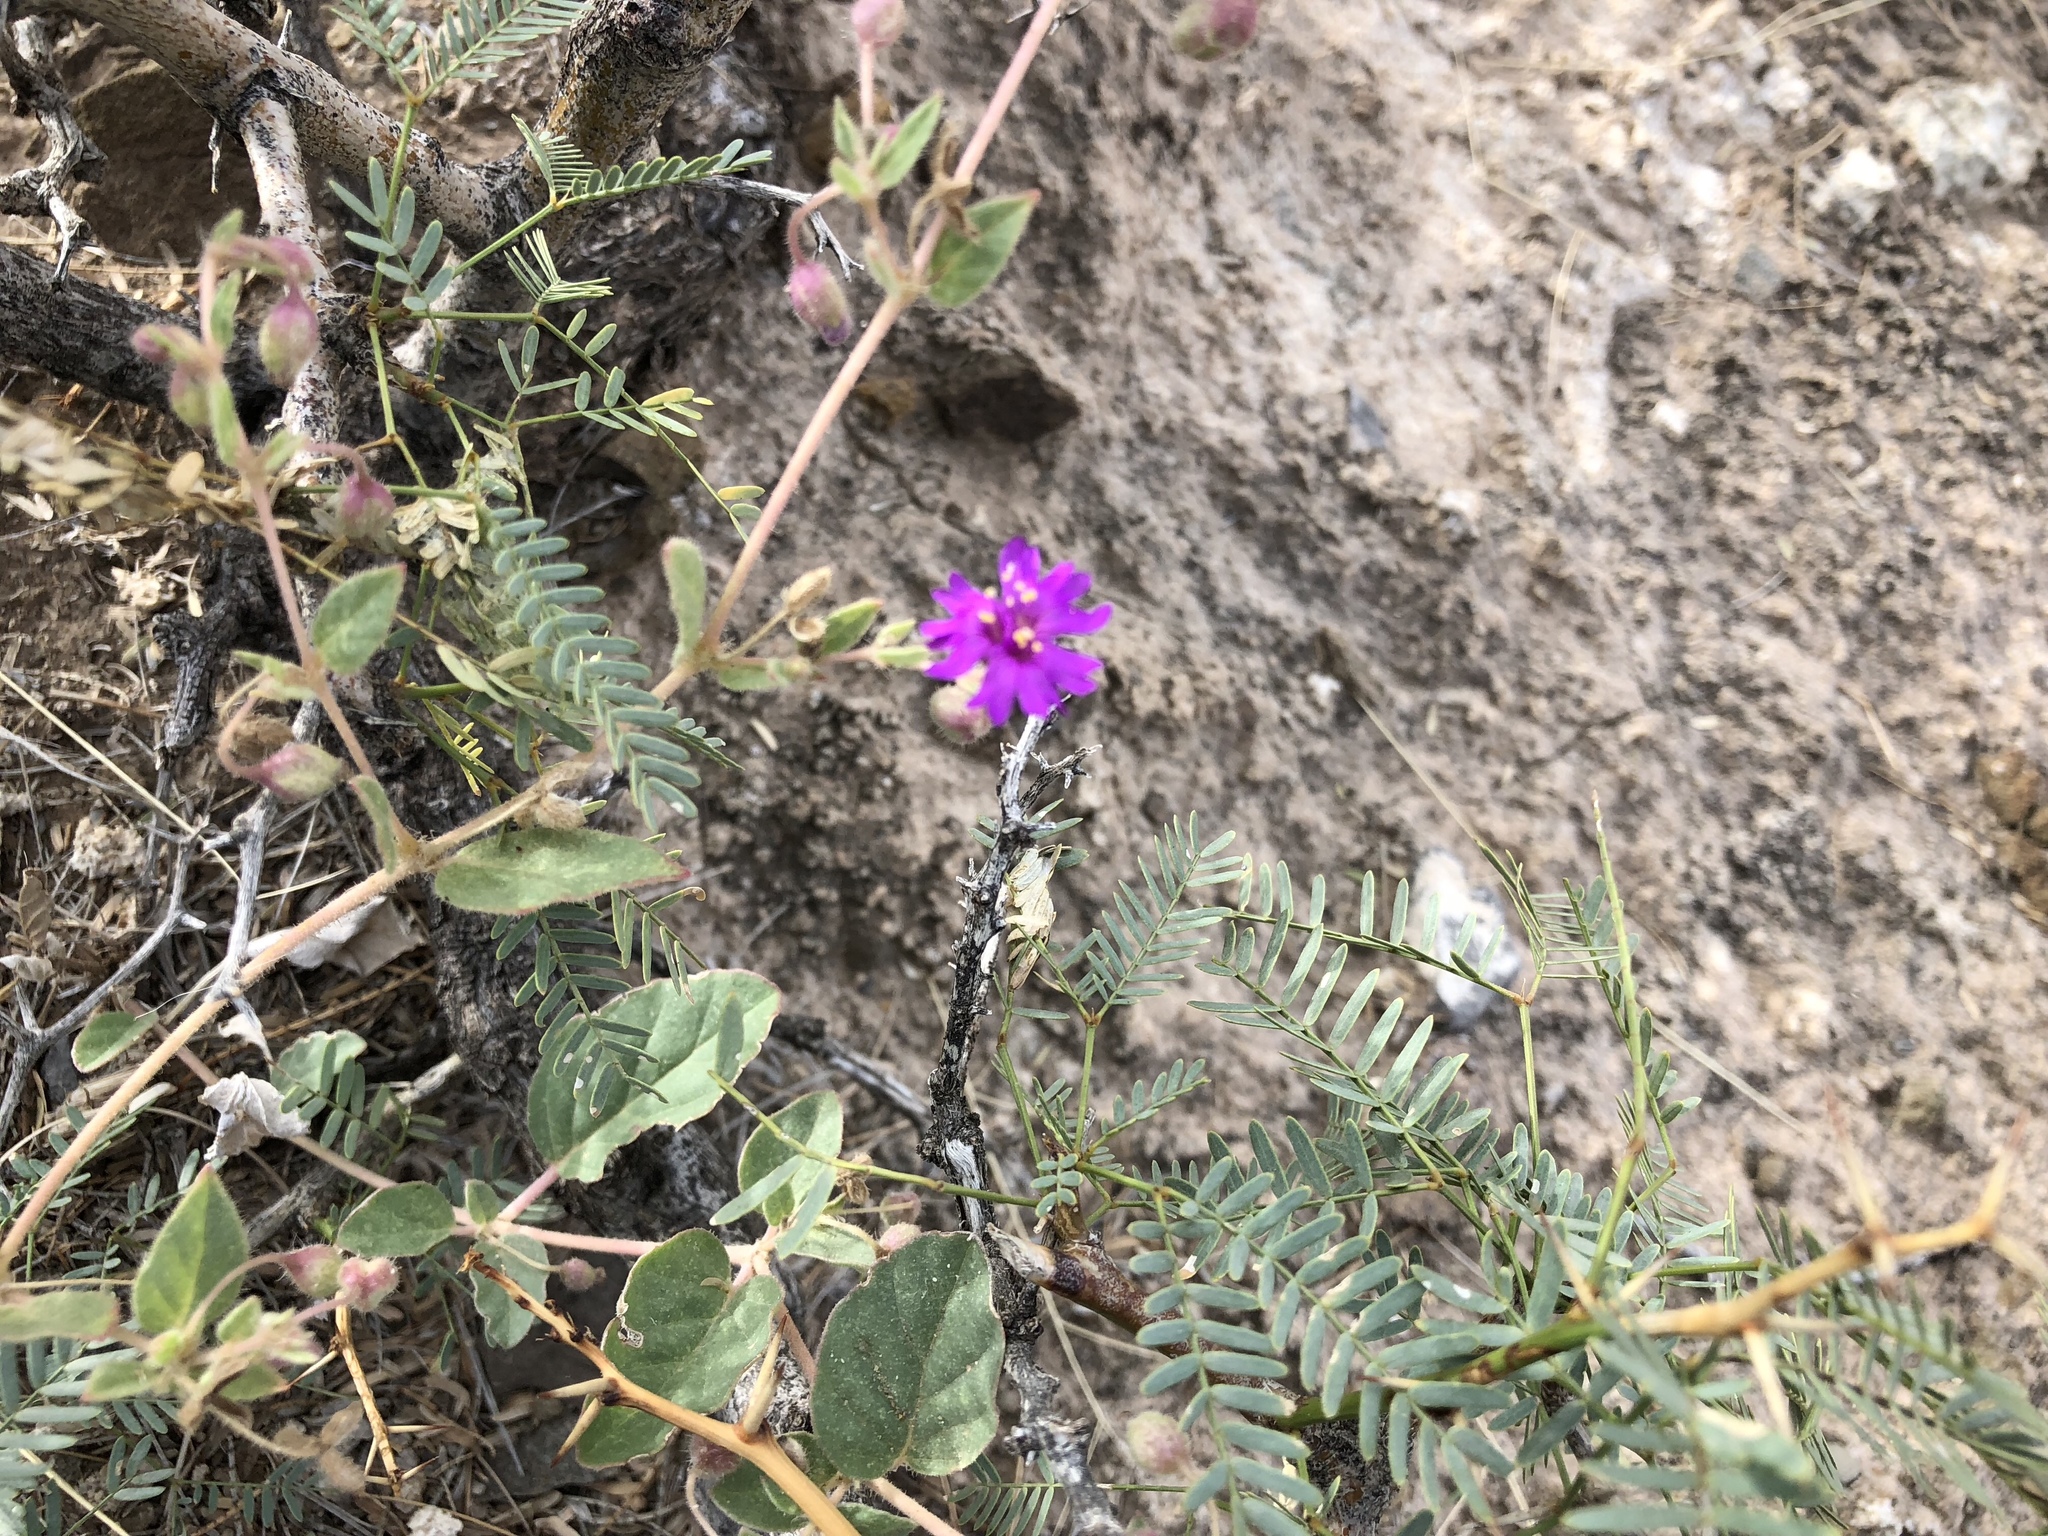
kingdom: Plantae
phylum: Tracheophyta
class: Magnoliopsida
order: Caryophyllales
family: Nyctaginaceae
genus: Allionia
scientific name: Allionia incarnata
